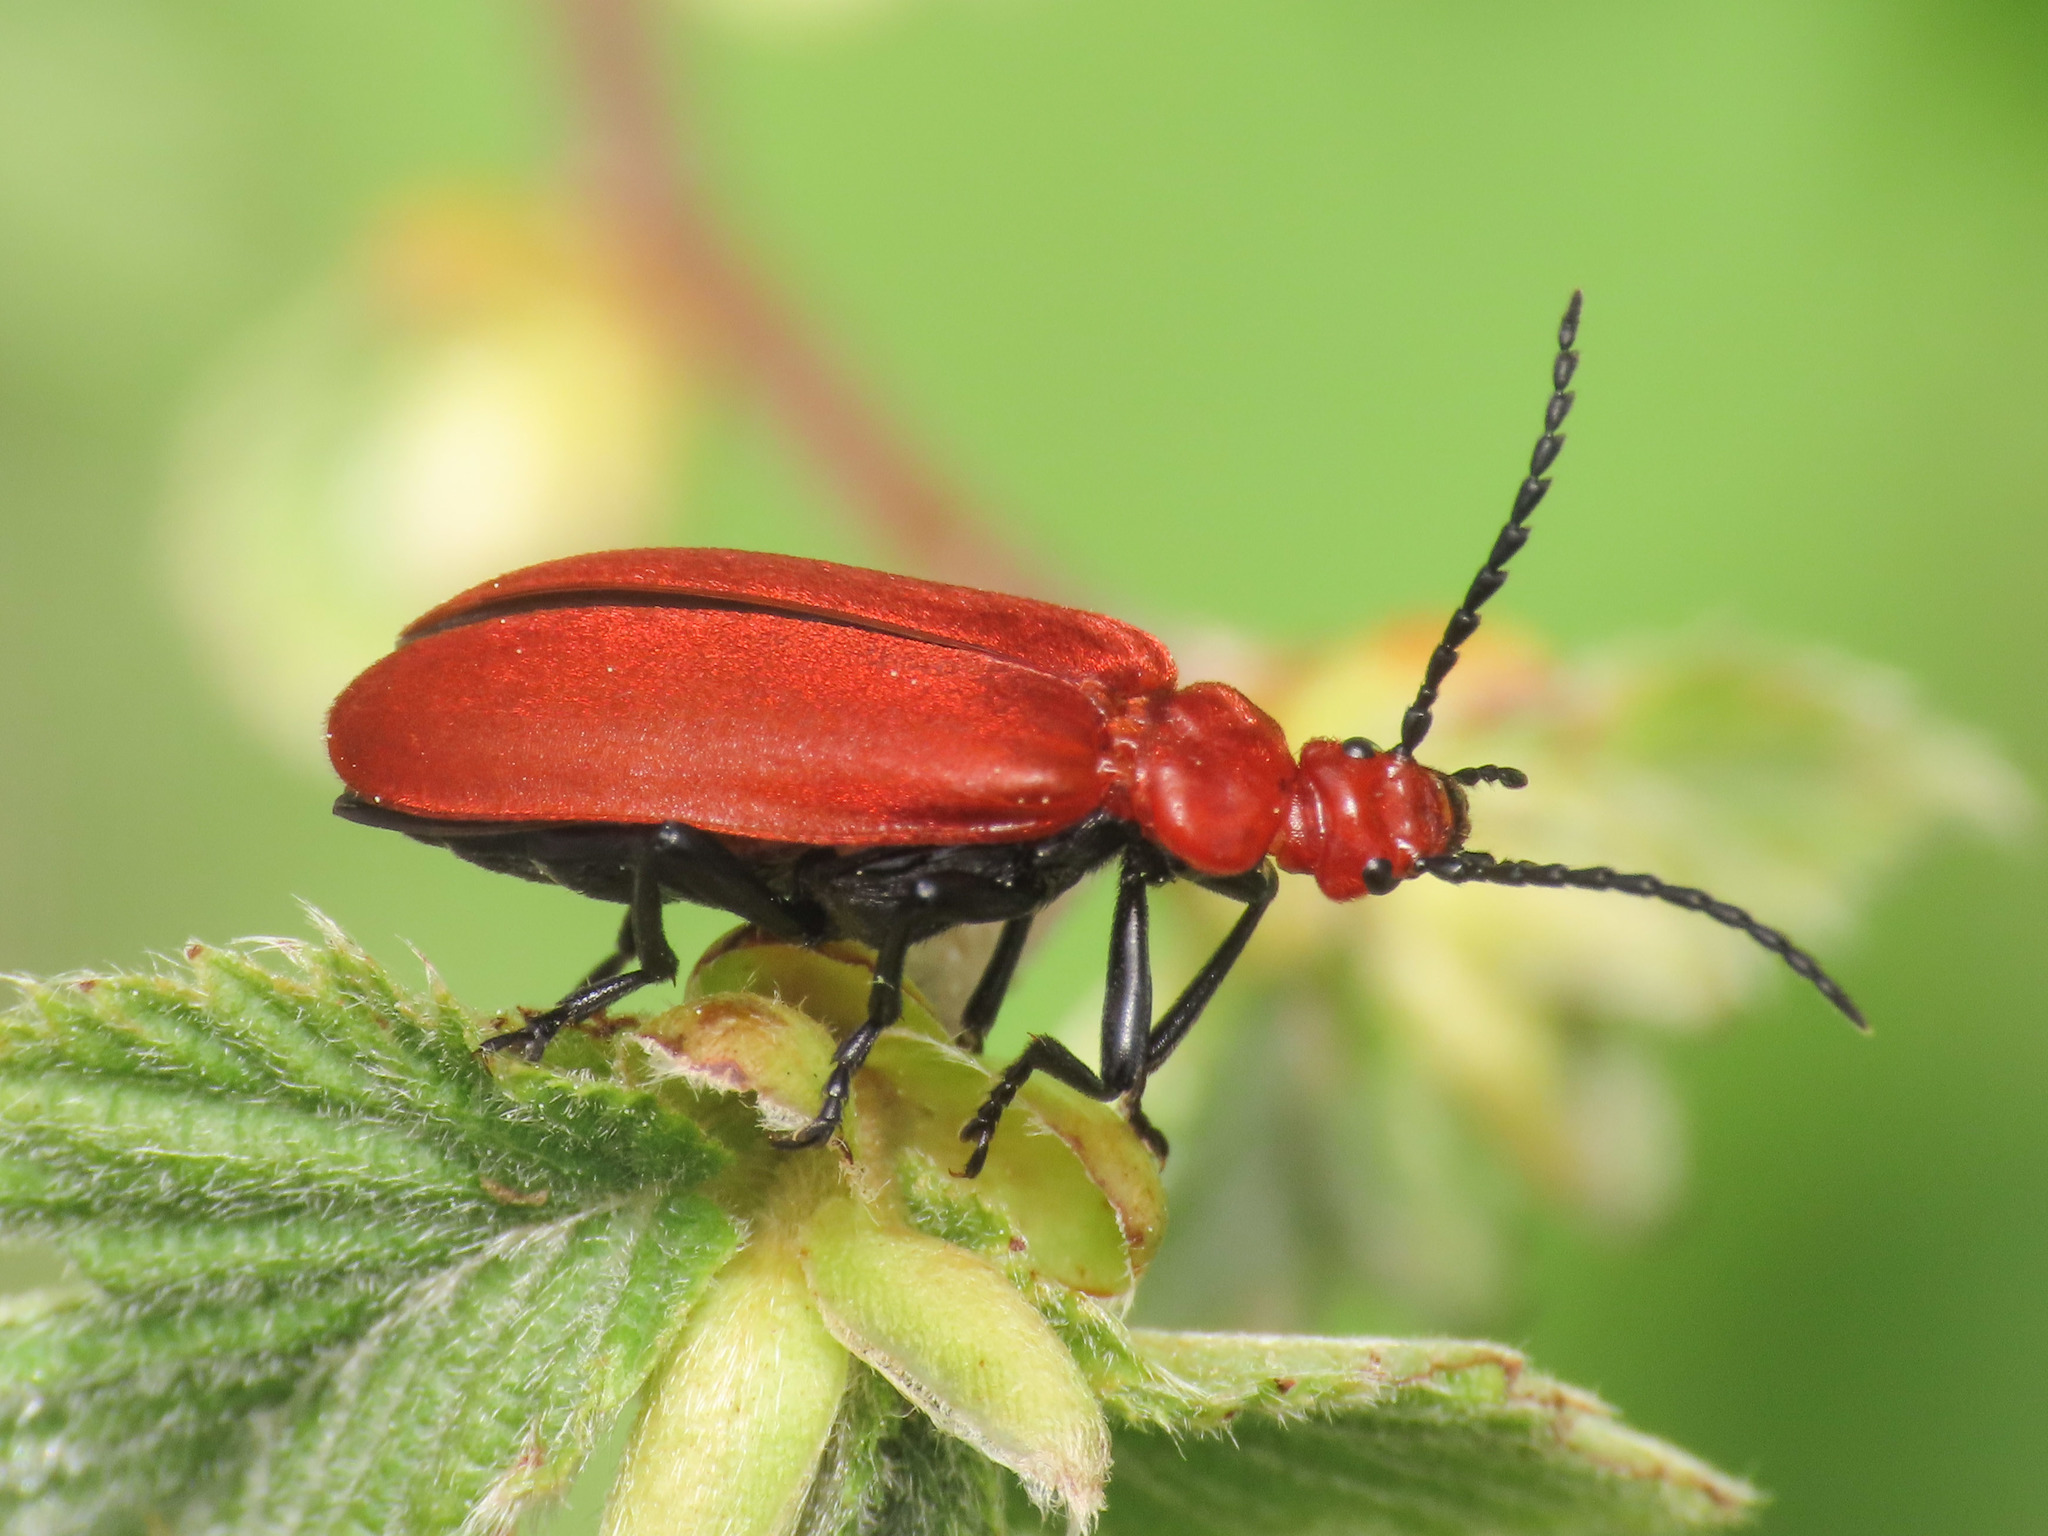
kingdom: Animalia
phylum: Arthropoda
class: Insecta
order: Coleoptera
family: Pyrochroidae
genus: Pyrochroa
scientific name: Pyrochroa serraticornis
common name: Red-headed cardinal beetle
